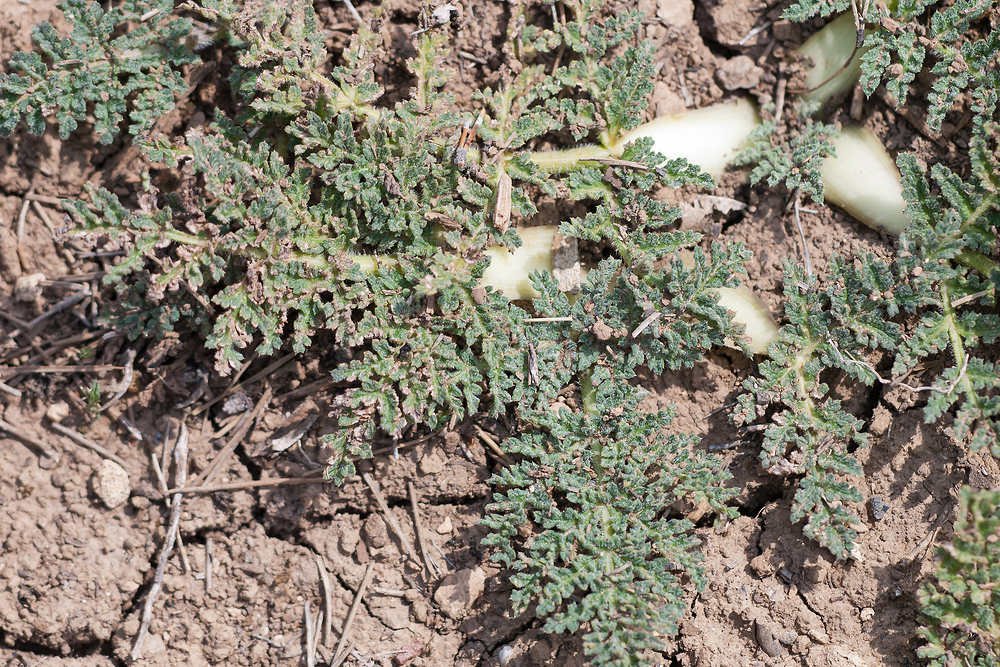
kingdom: Plantae
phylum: Tracheophyta
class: Magnoliopsida
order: Apiales
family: Apiaceae
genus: Thapsia
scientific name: Thapsia villosa
